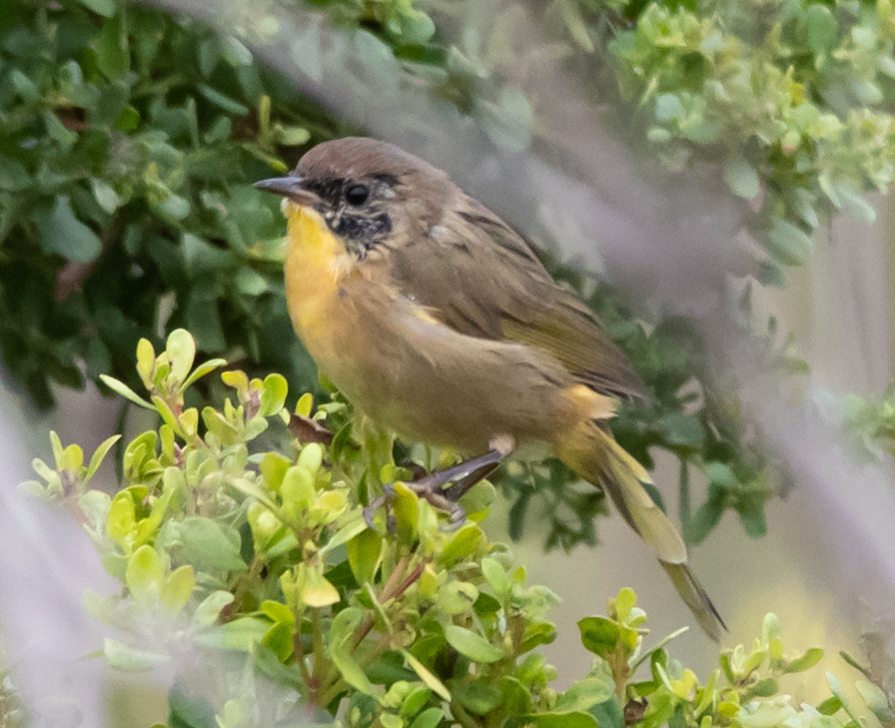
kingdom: Animalia
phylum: Chordata
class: Aves
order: Passeriformes
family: Parulidae
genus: Geothlypis
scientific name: Geothlypis trichas
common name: Common yellowthroat
